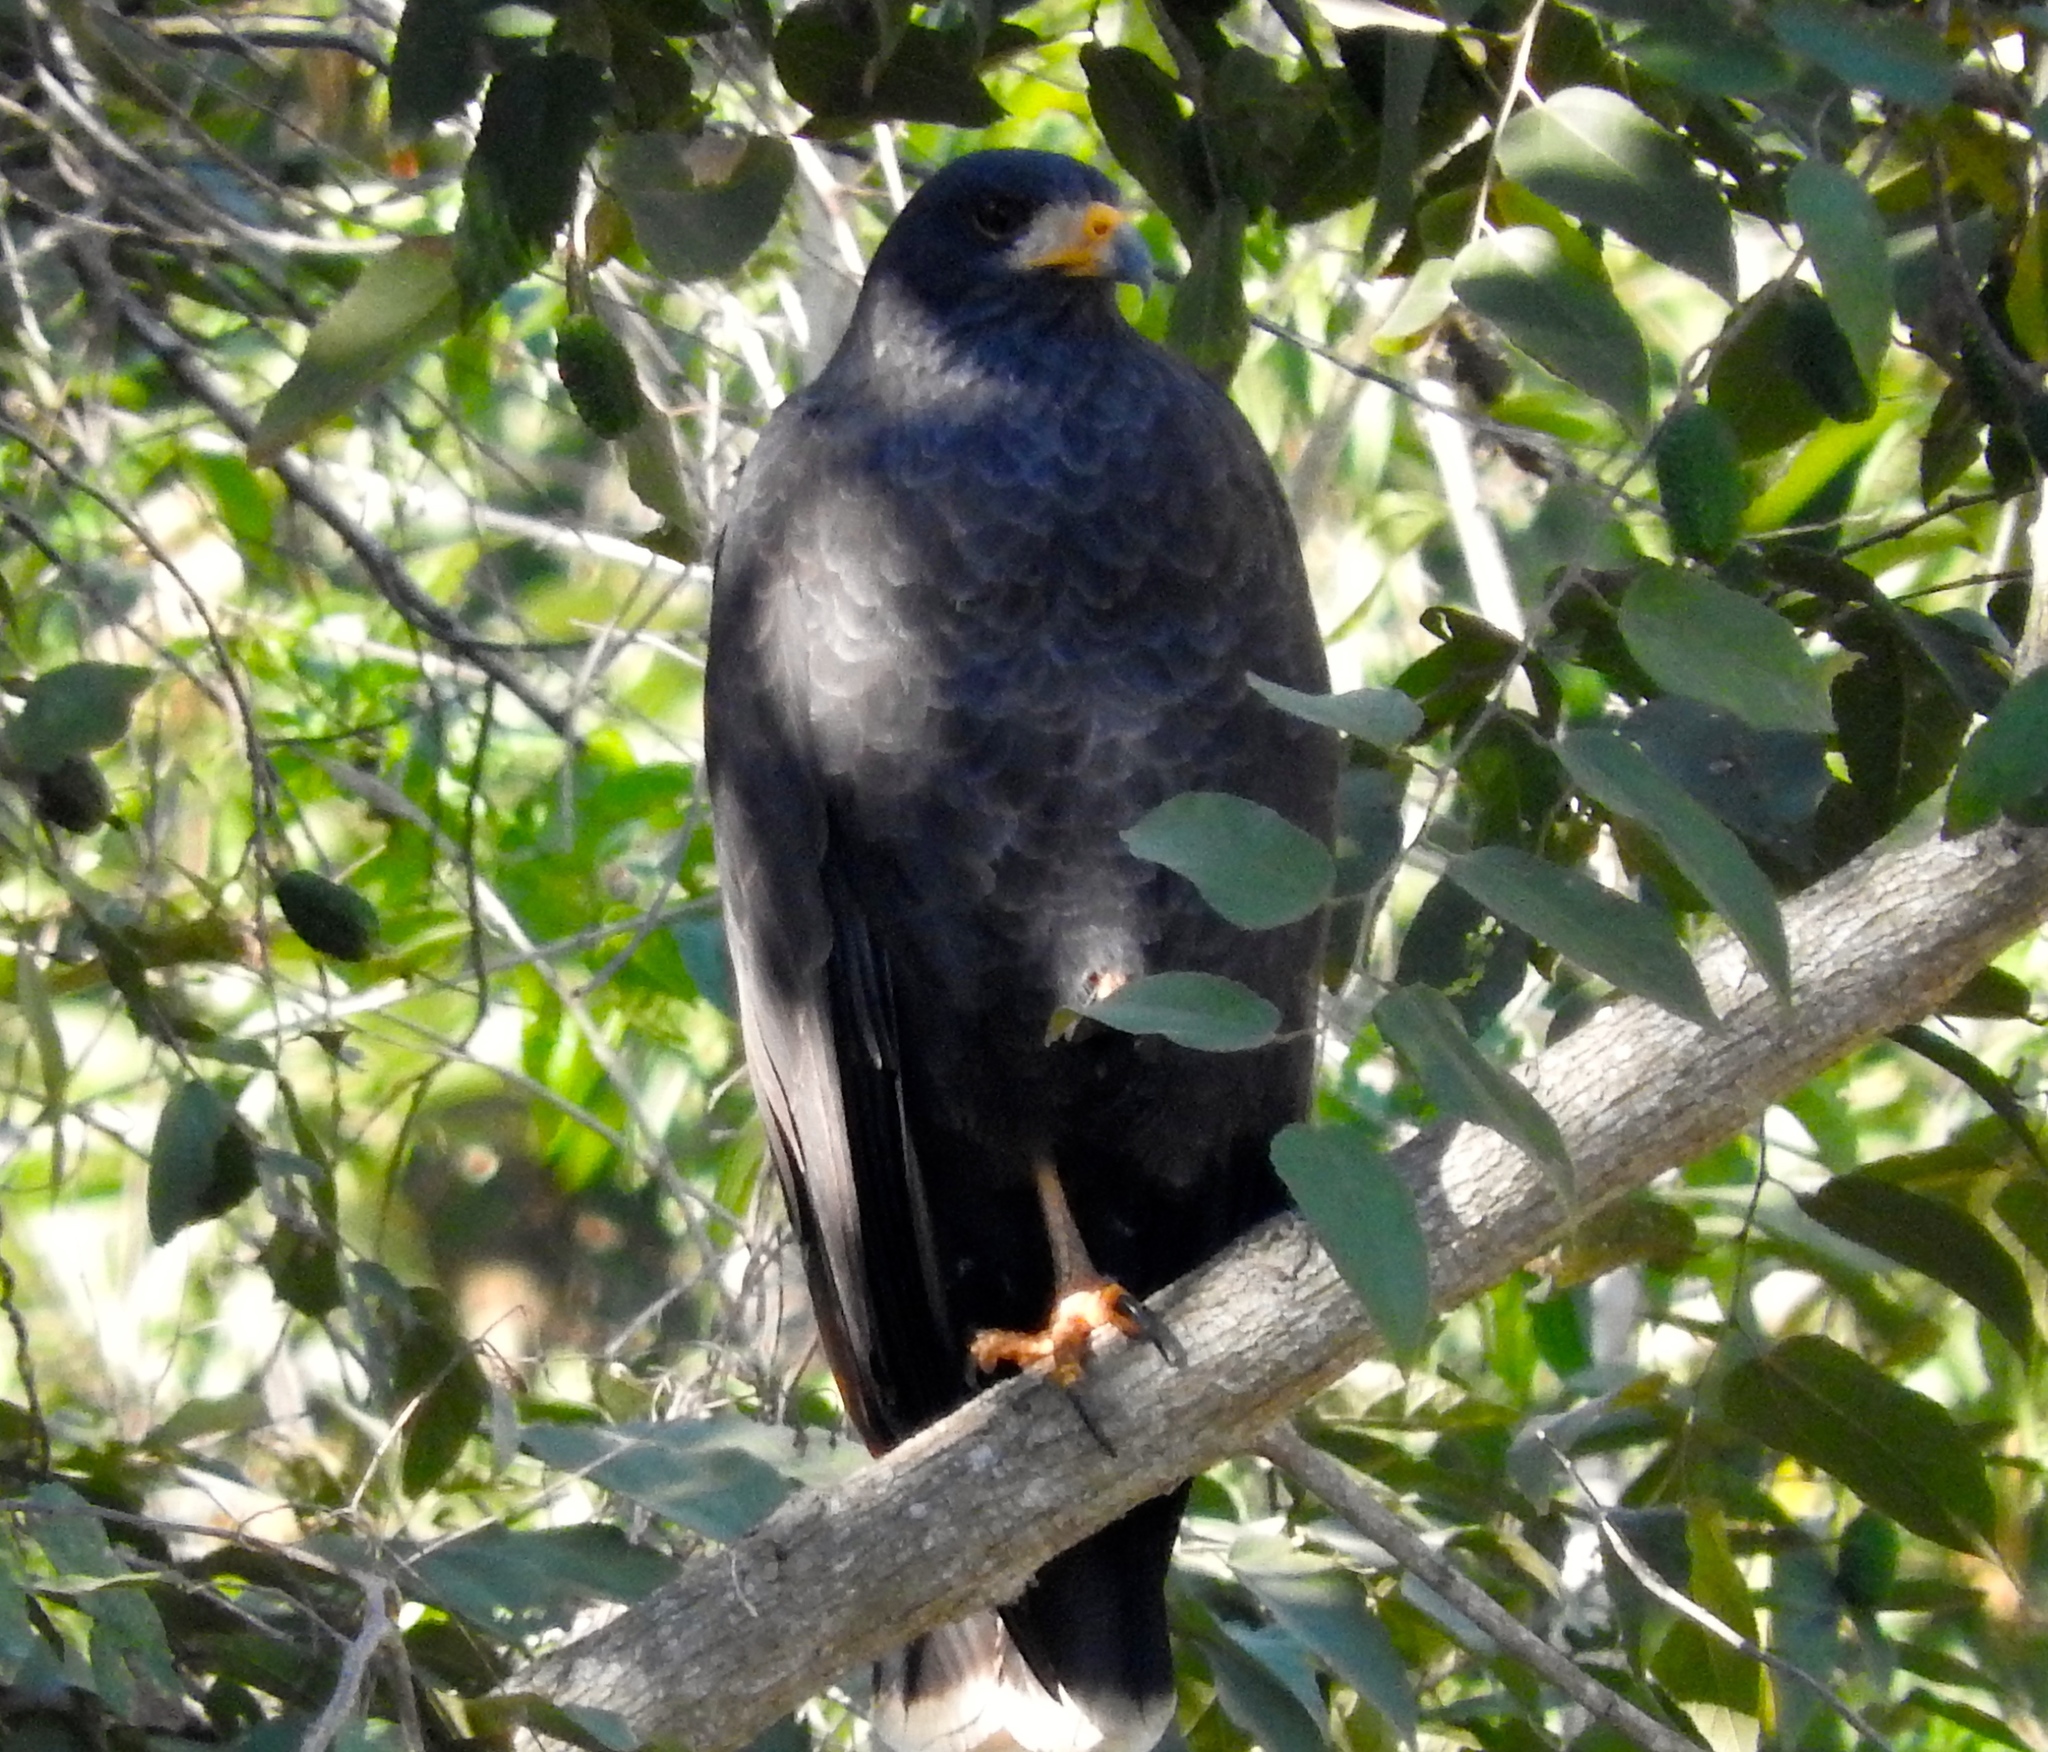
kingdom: Animalia
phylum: Chordata
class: Aves
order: Accipitriformes
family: Accipitridae
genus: Buteogallus
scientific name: Buteogallus anthracinus
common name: Common black hawk
